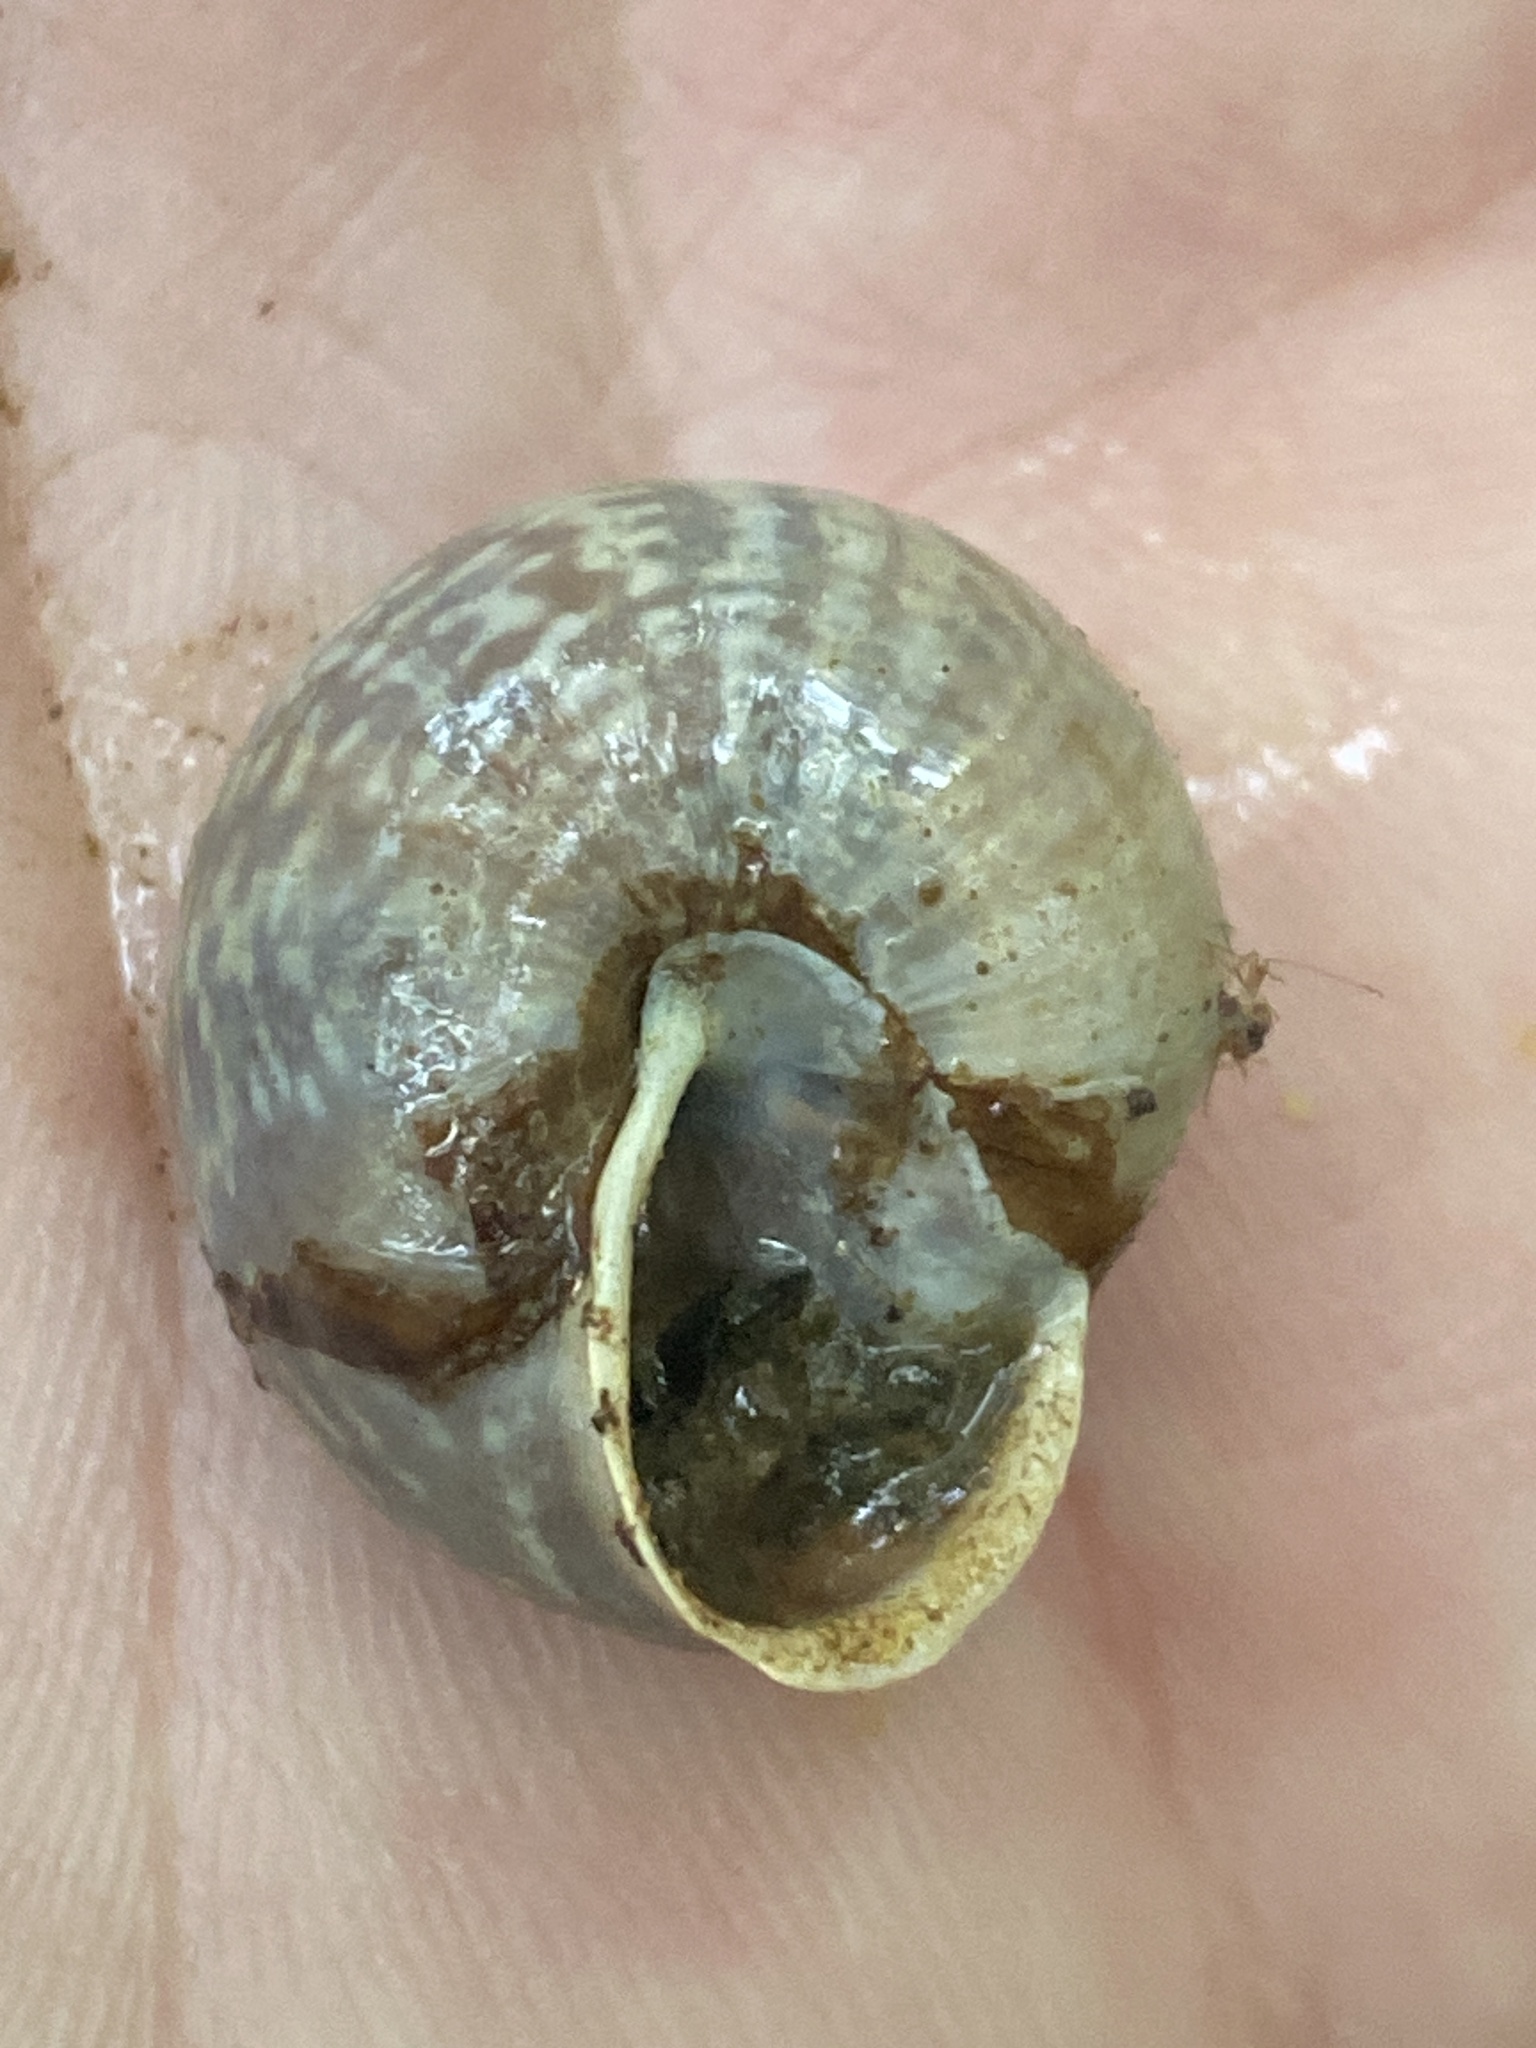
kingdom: Animalia
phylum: Mollusca
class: Gastropoda
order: Stylommatophora
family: Helicidae
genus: Arianta
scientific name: Arianta arbustorum
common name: Copse snail
